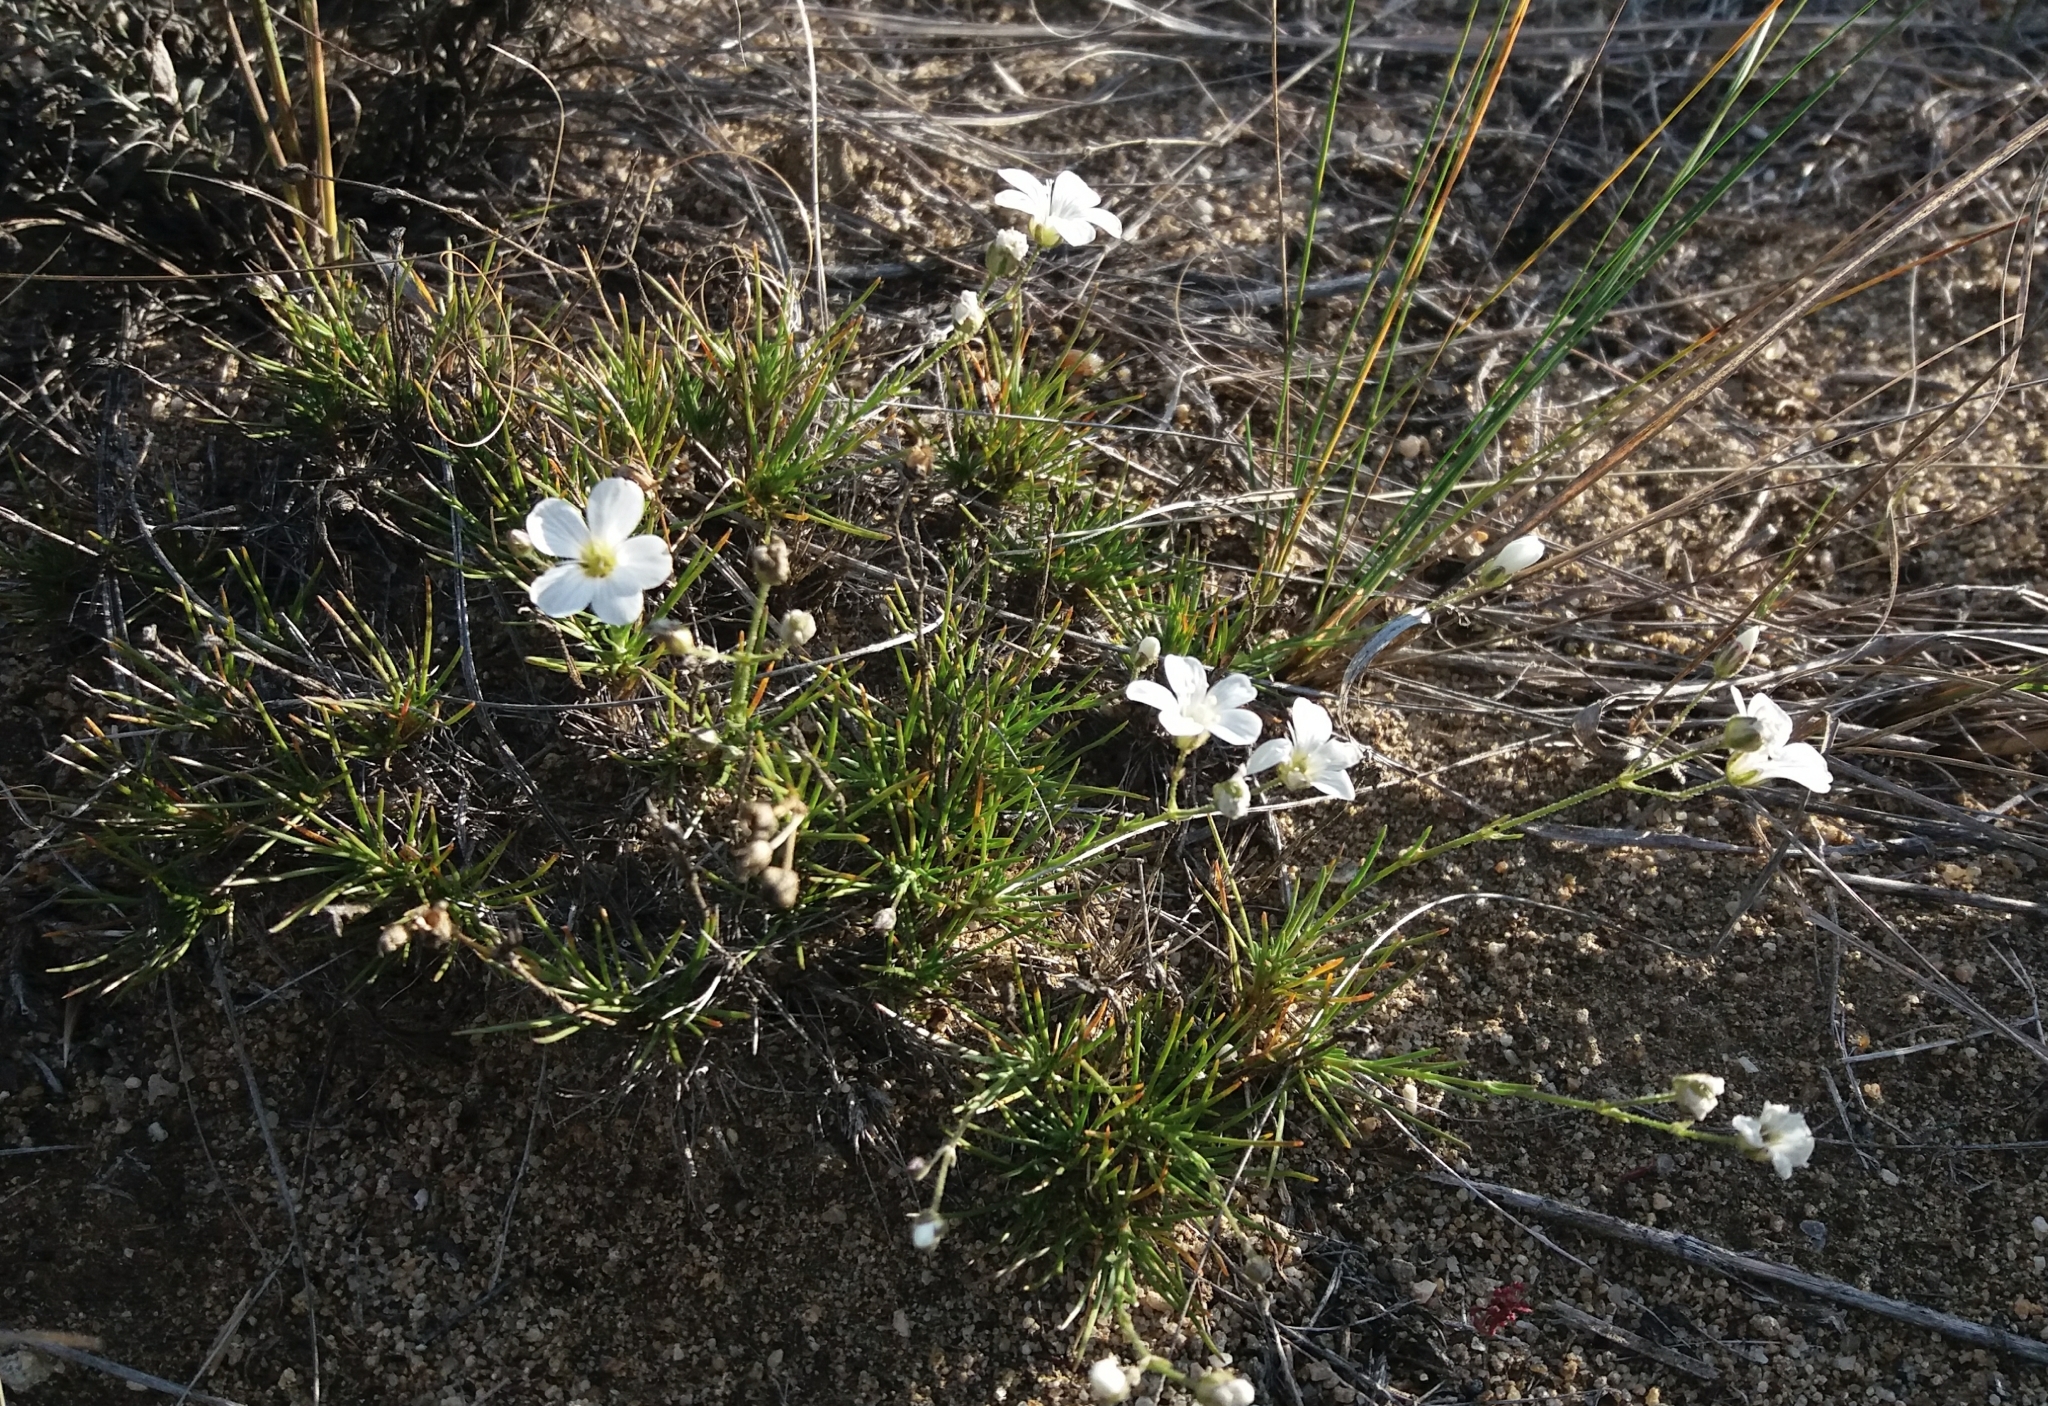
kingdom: Plantae
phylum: Tracheophyta
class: Magnoliopsida
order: Caryophyllales
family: Caryophyllaceae
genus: Eremogone
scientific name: Eremogone meyeri
